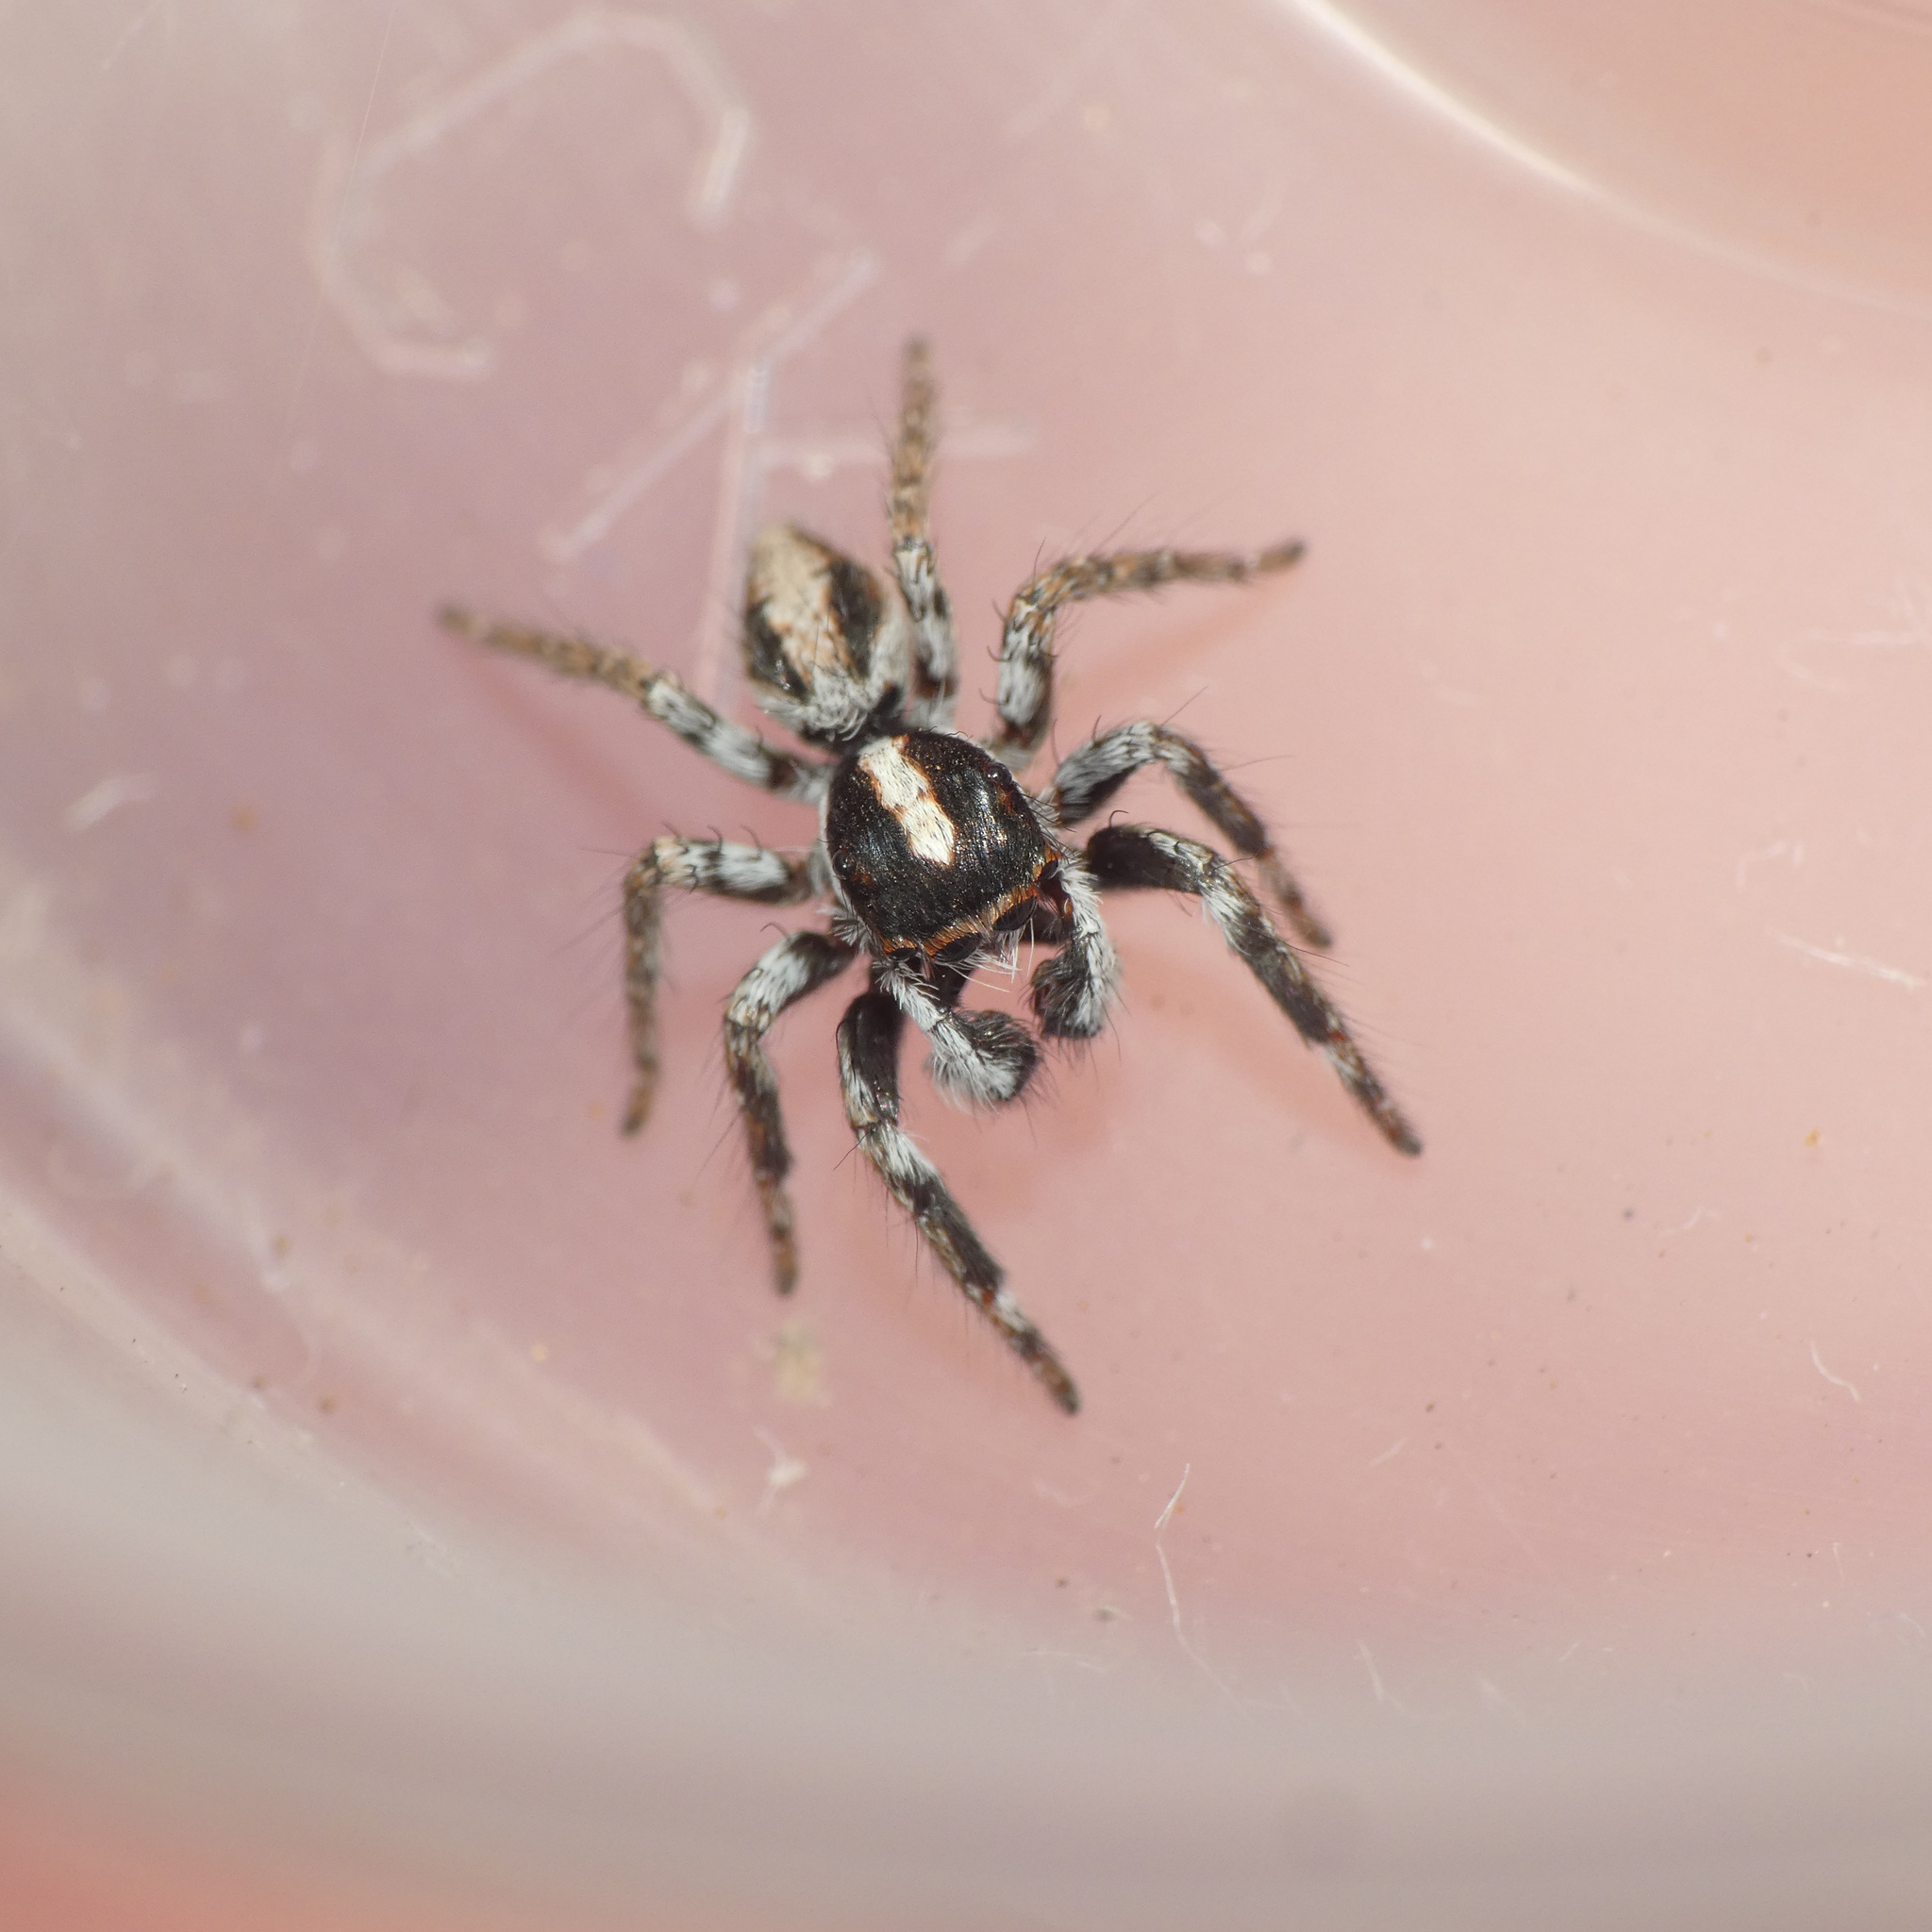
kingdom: Animalia
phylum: Arthropoda
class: Arachnida
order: Araneae
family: Salticidae
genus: Pignus
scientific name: Pignus simoni
